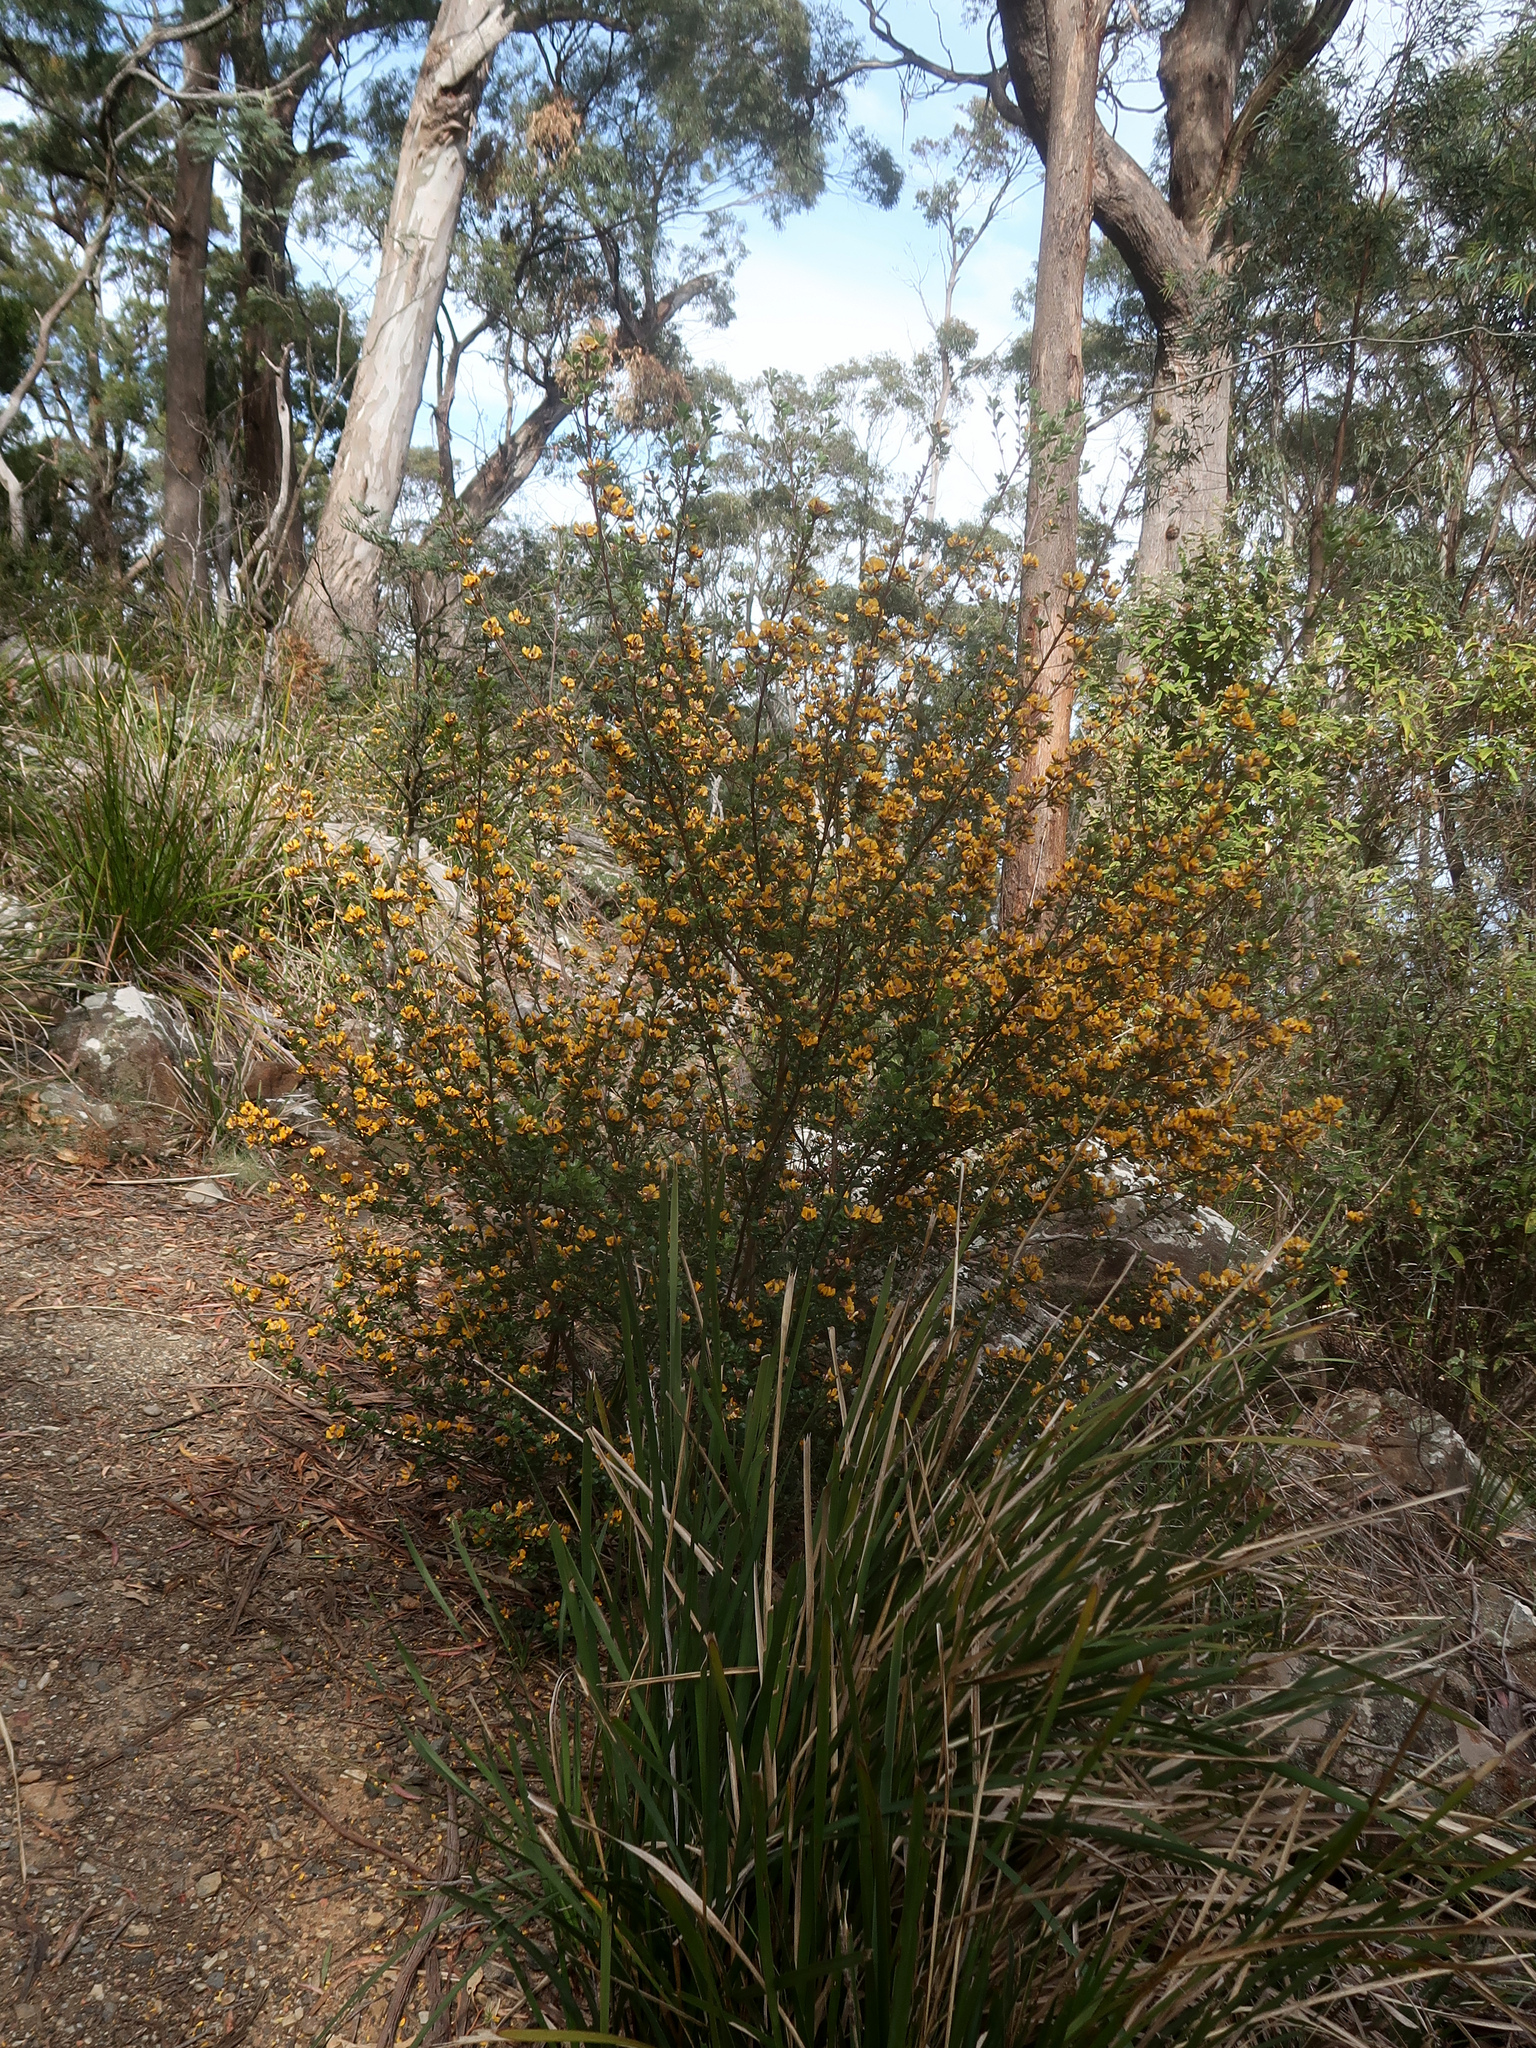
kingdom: Plantae
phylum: Tracheophyta
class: Magnoliopsida
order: Fabales
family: Fabaceae
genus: Pultenaea
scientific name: Pultenaea daphnoides
